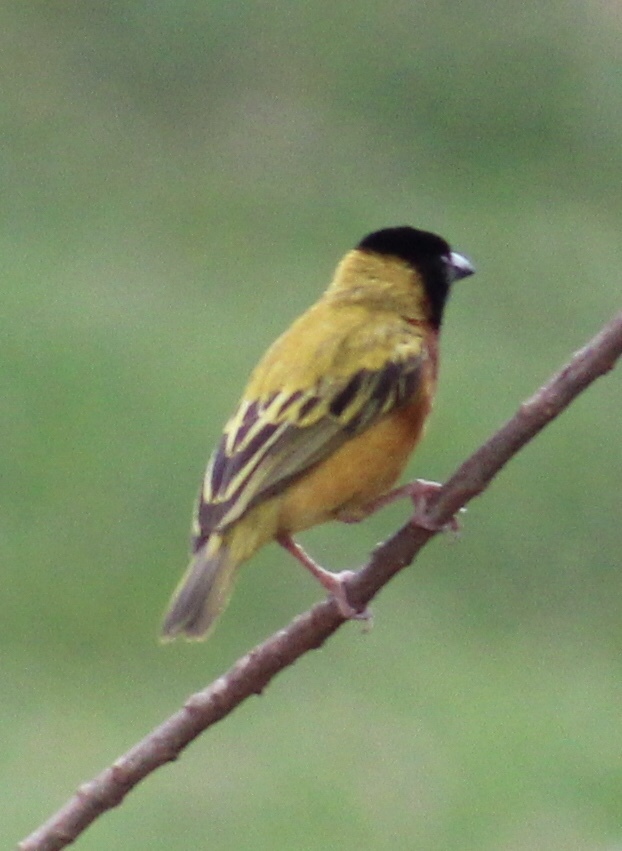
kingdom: Animalia
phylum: Chordata
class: Aves
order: Passeriformes
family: Ploceidae
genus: Ploceus
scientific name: Ploceus melanocephalus
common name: Black-headed weaver
